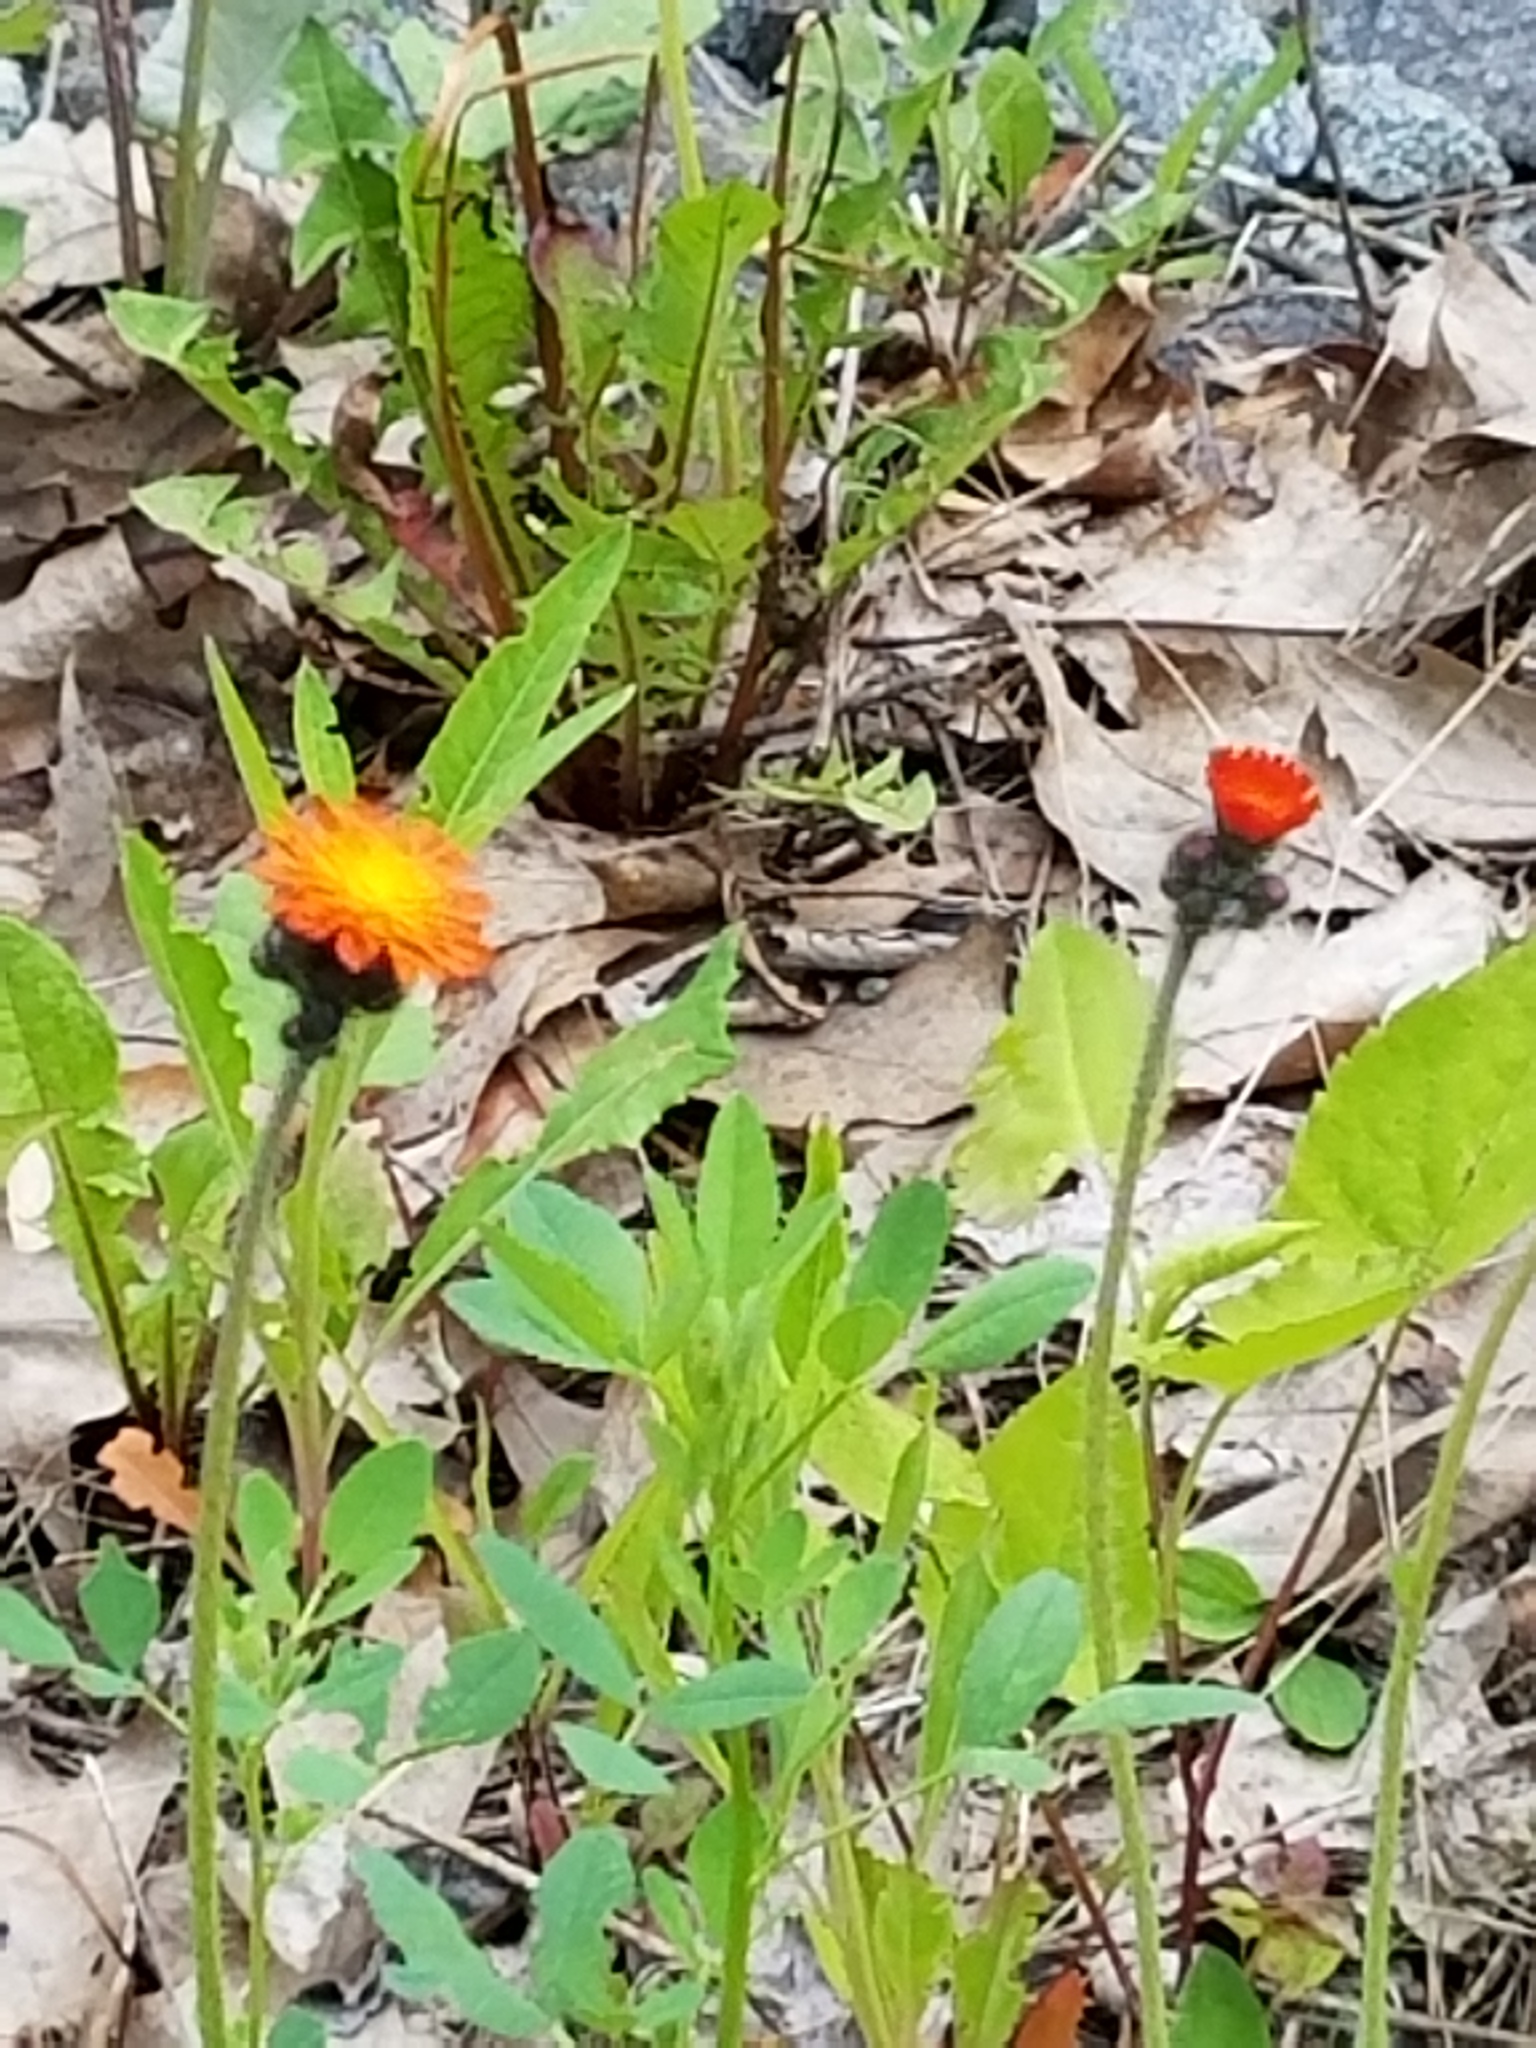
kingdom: Plantae
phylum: Tracheophyta
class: Magnoliopsida
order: Asterales
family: Asteraceae
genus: Pilosella
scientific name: Pilosella aurantiaca
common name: Fox-and-cubs
